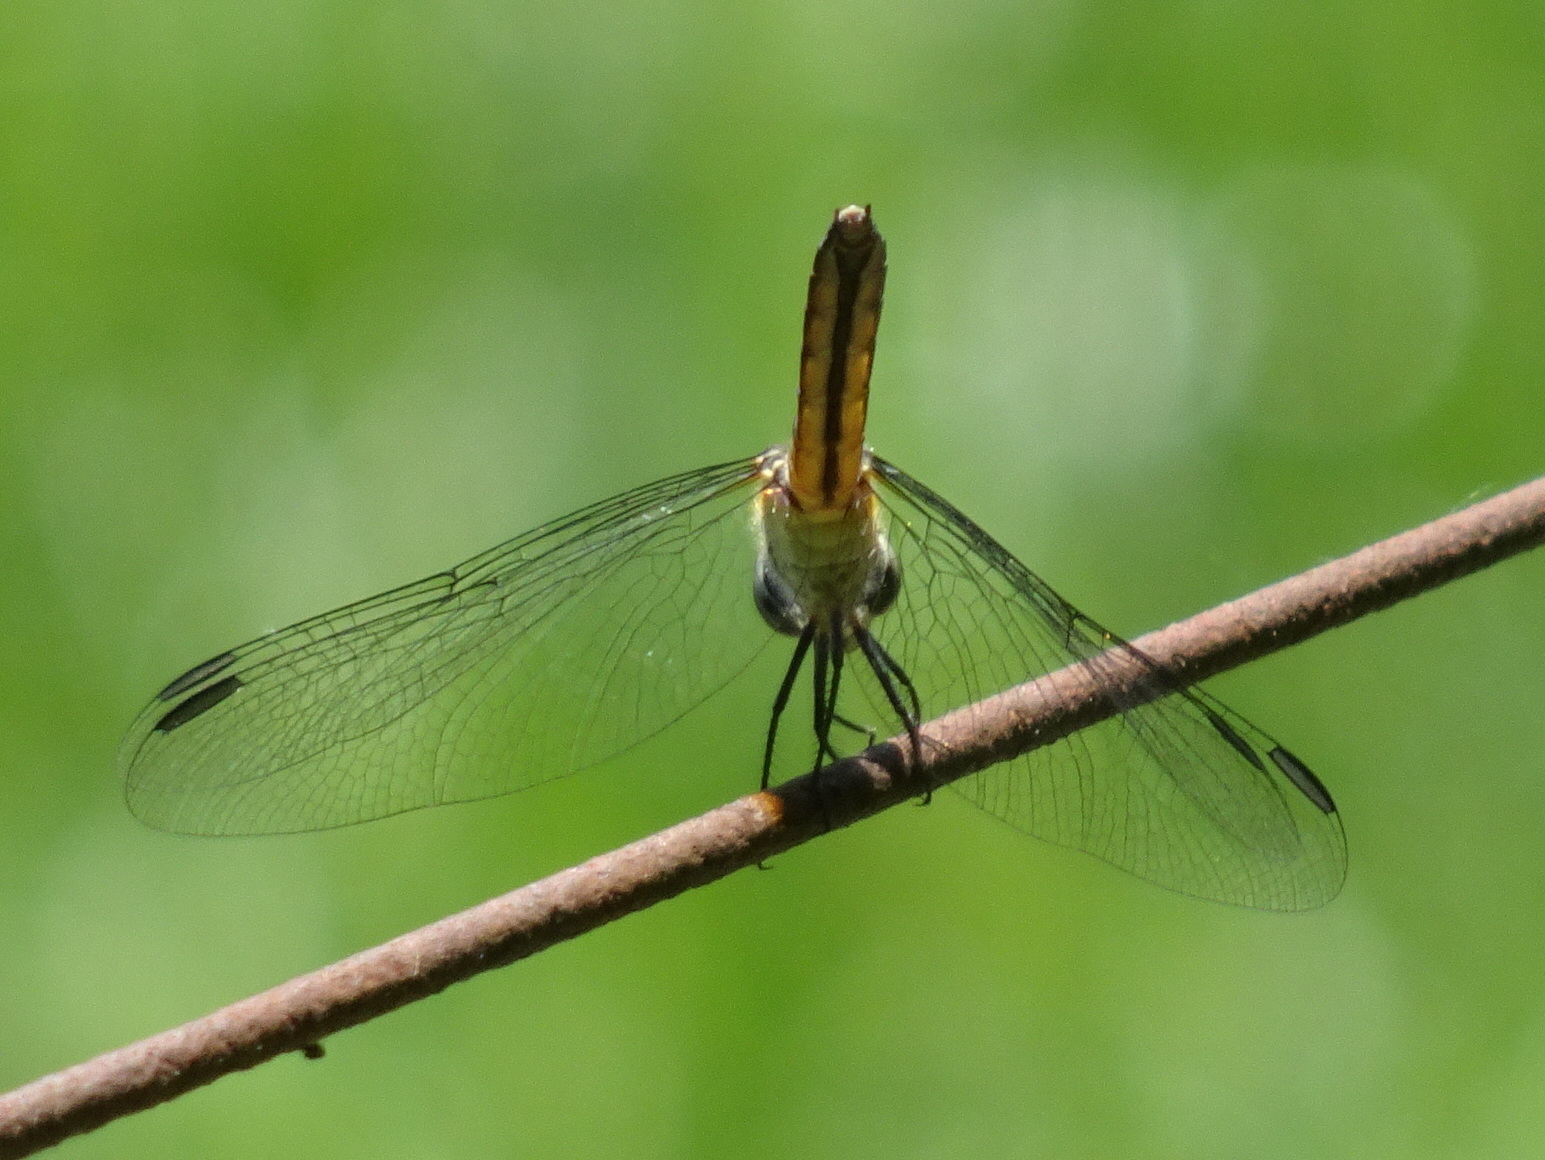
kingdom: Animalia
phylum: Arthropoda
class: Insecta
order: Odonata
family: Libellulidae
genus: Pachydiplax
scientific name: Pachydiplax longipennis
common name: Blue dasher
